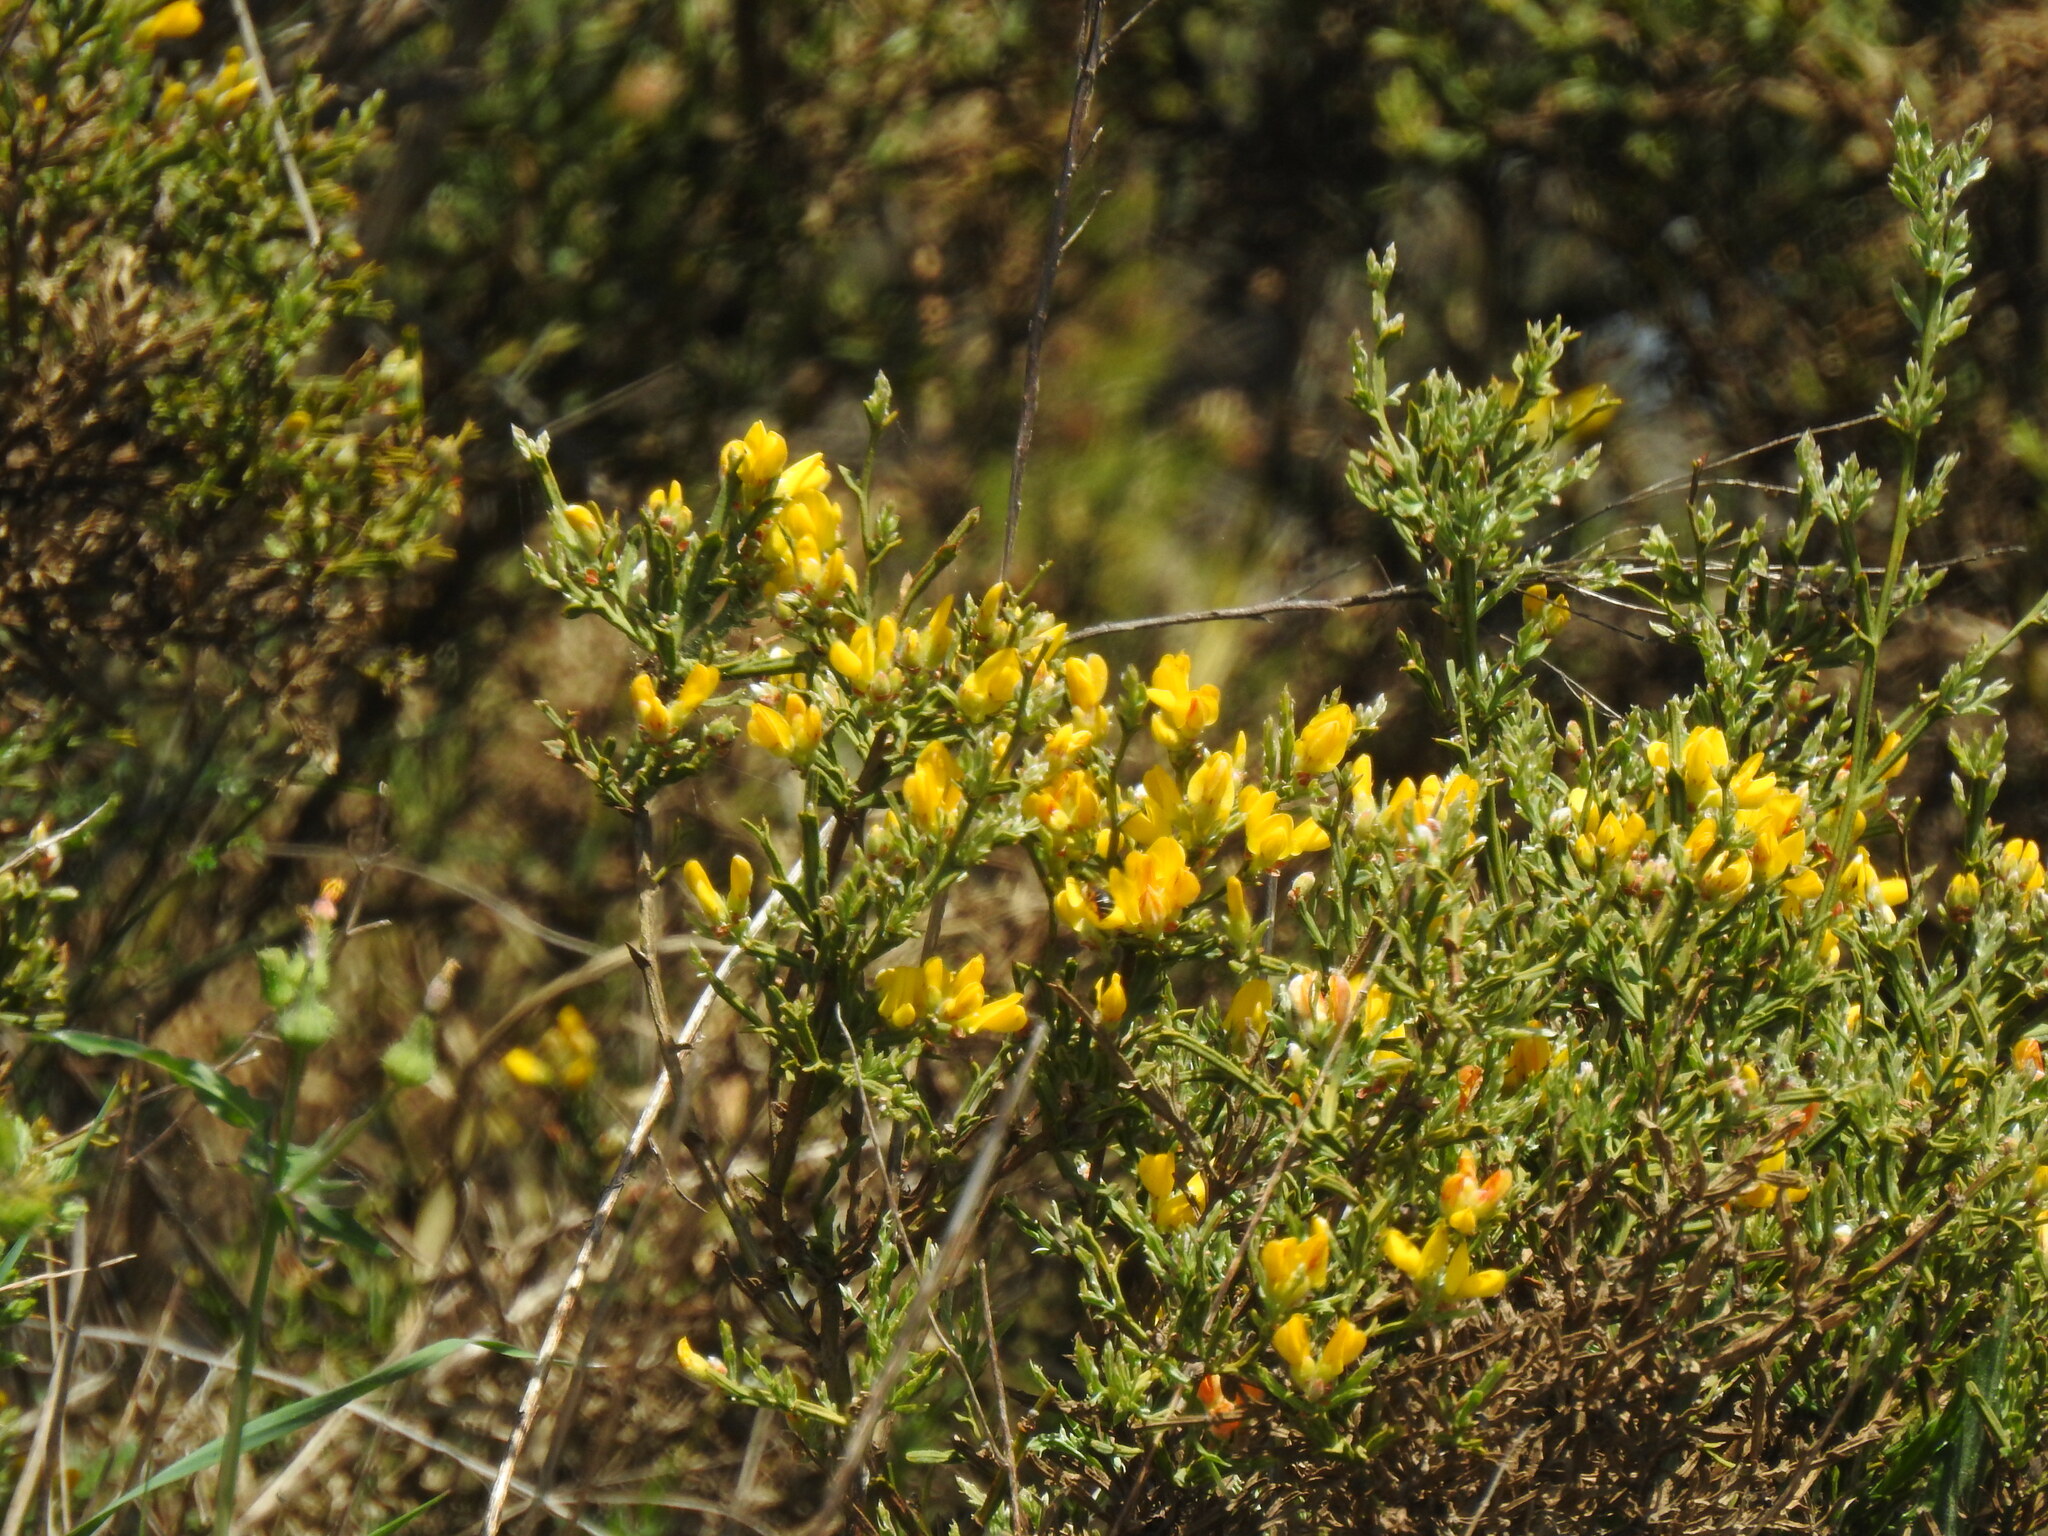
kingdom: Plantae
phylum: Tracheophyta
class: Magnoliopsida
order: Fabales
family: Fabaceae
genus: Genista
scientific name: Genista tridentata
